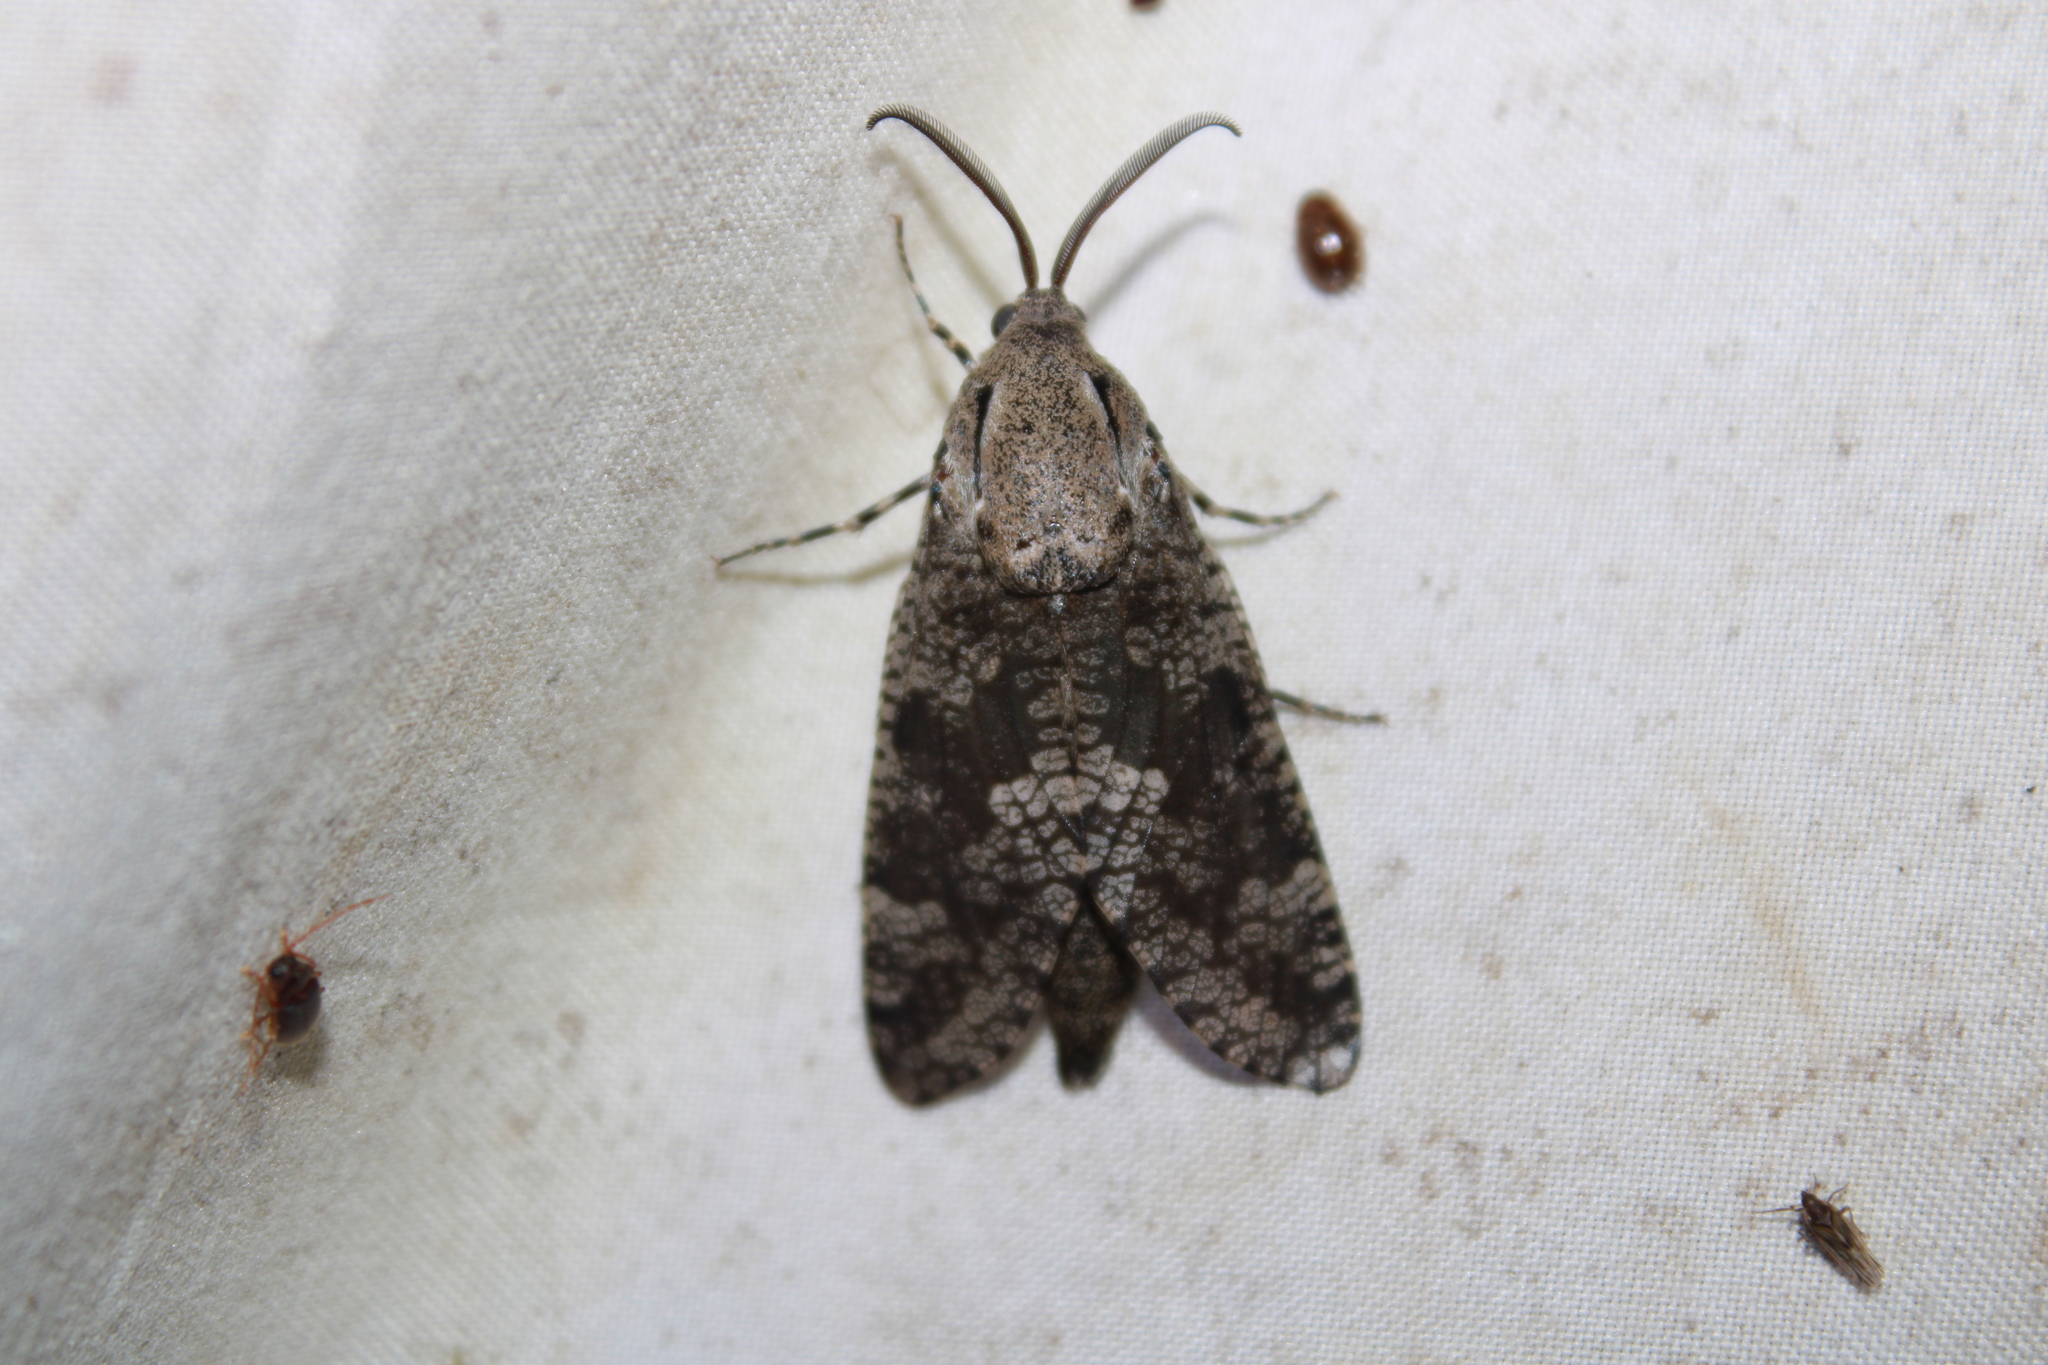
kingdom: Animalia
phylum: Arthropoda
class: Insecta
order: Lepidoptera
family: Cossidae
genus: Prionoxystus
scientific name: Prionoxystus robiniae
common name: Carpenterworm
